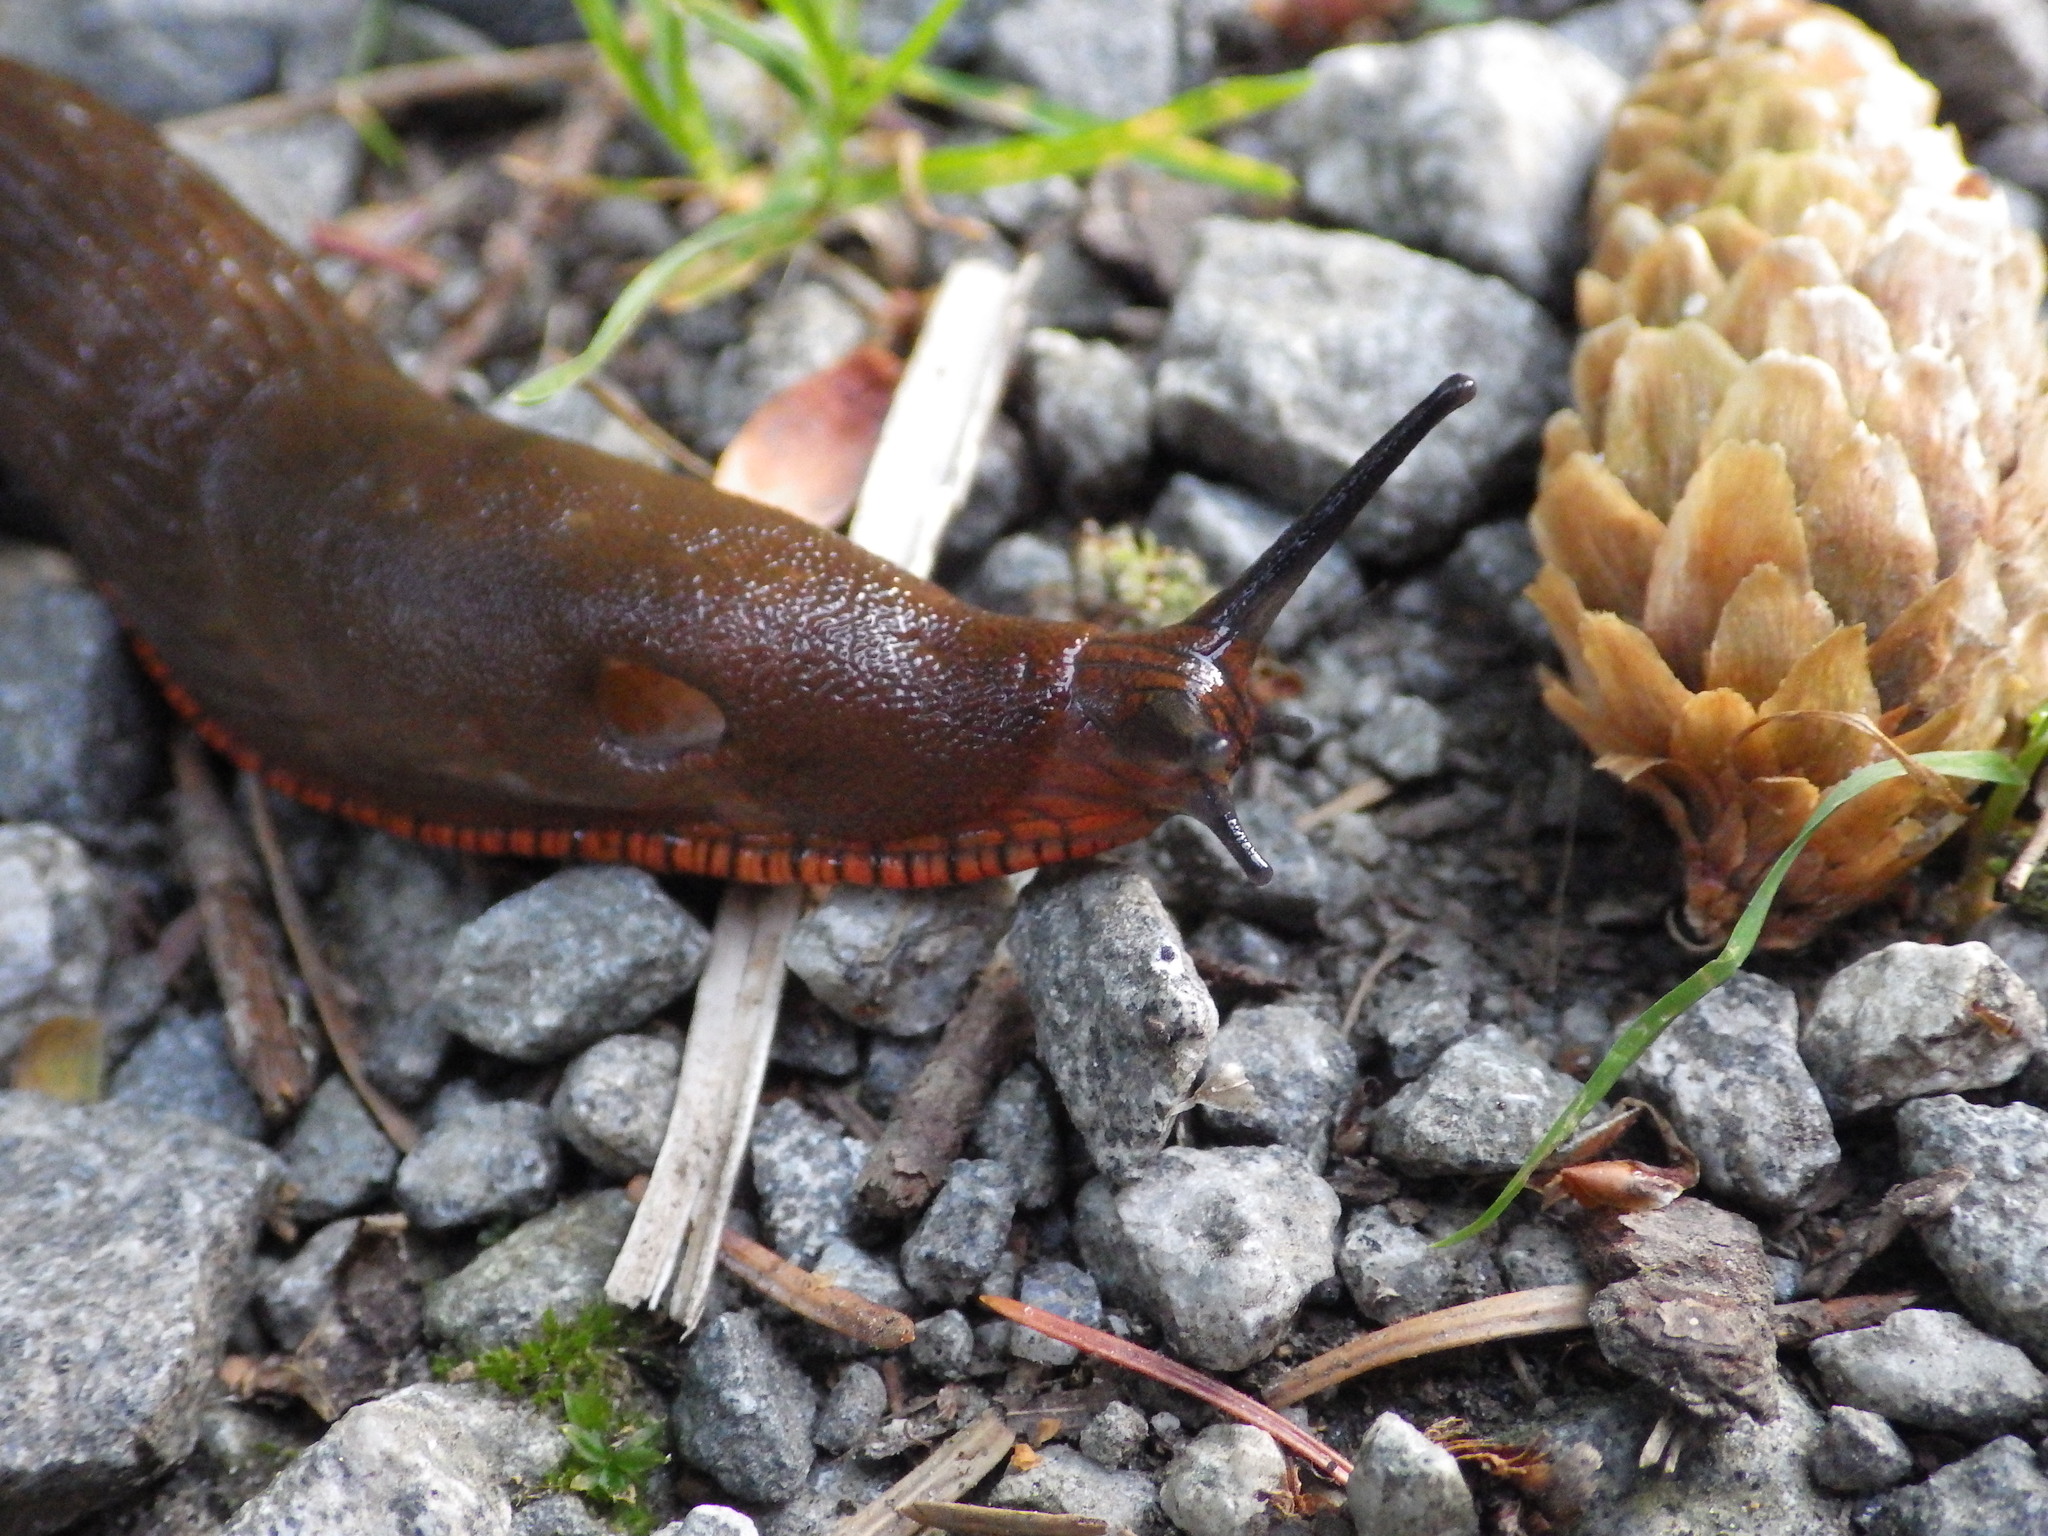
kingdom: Animalia
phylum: Mollusca
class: Gastropoda
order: Stylommatophora
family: Arionidae
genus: Arion
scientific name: Arion rufus
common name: Chocolate arion
